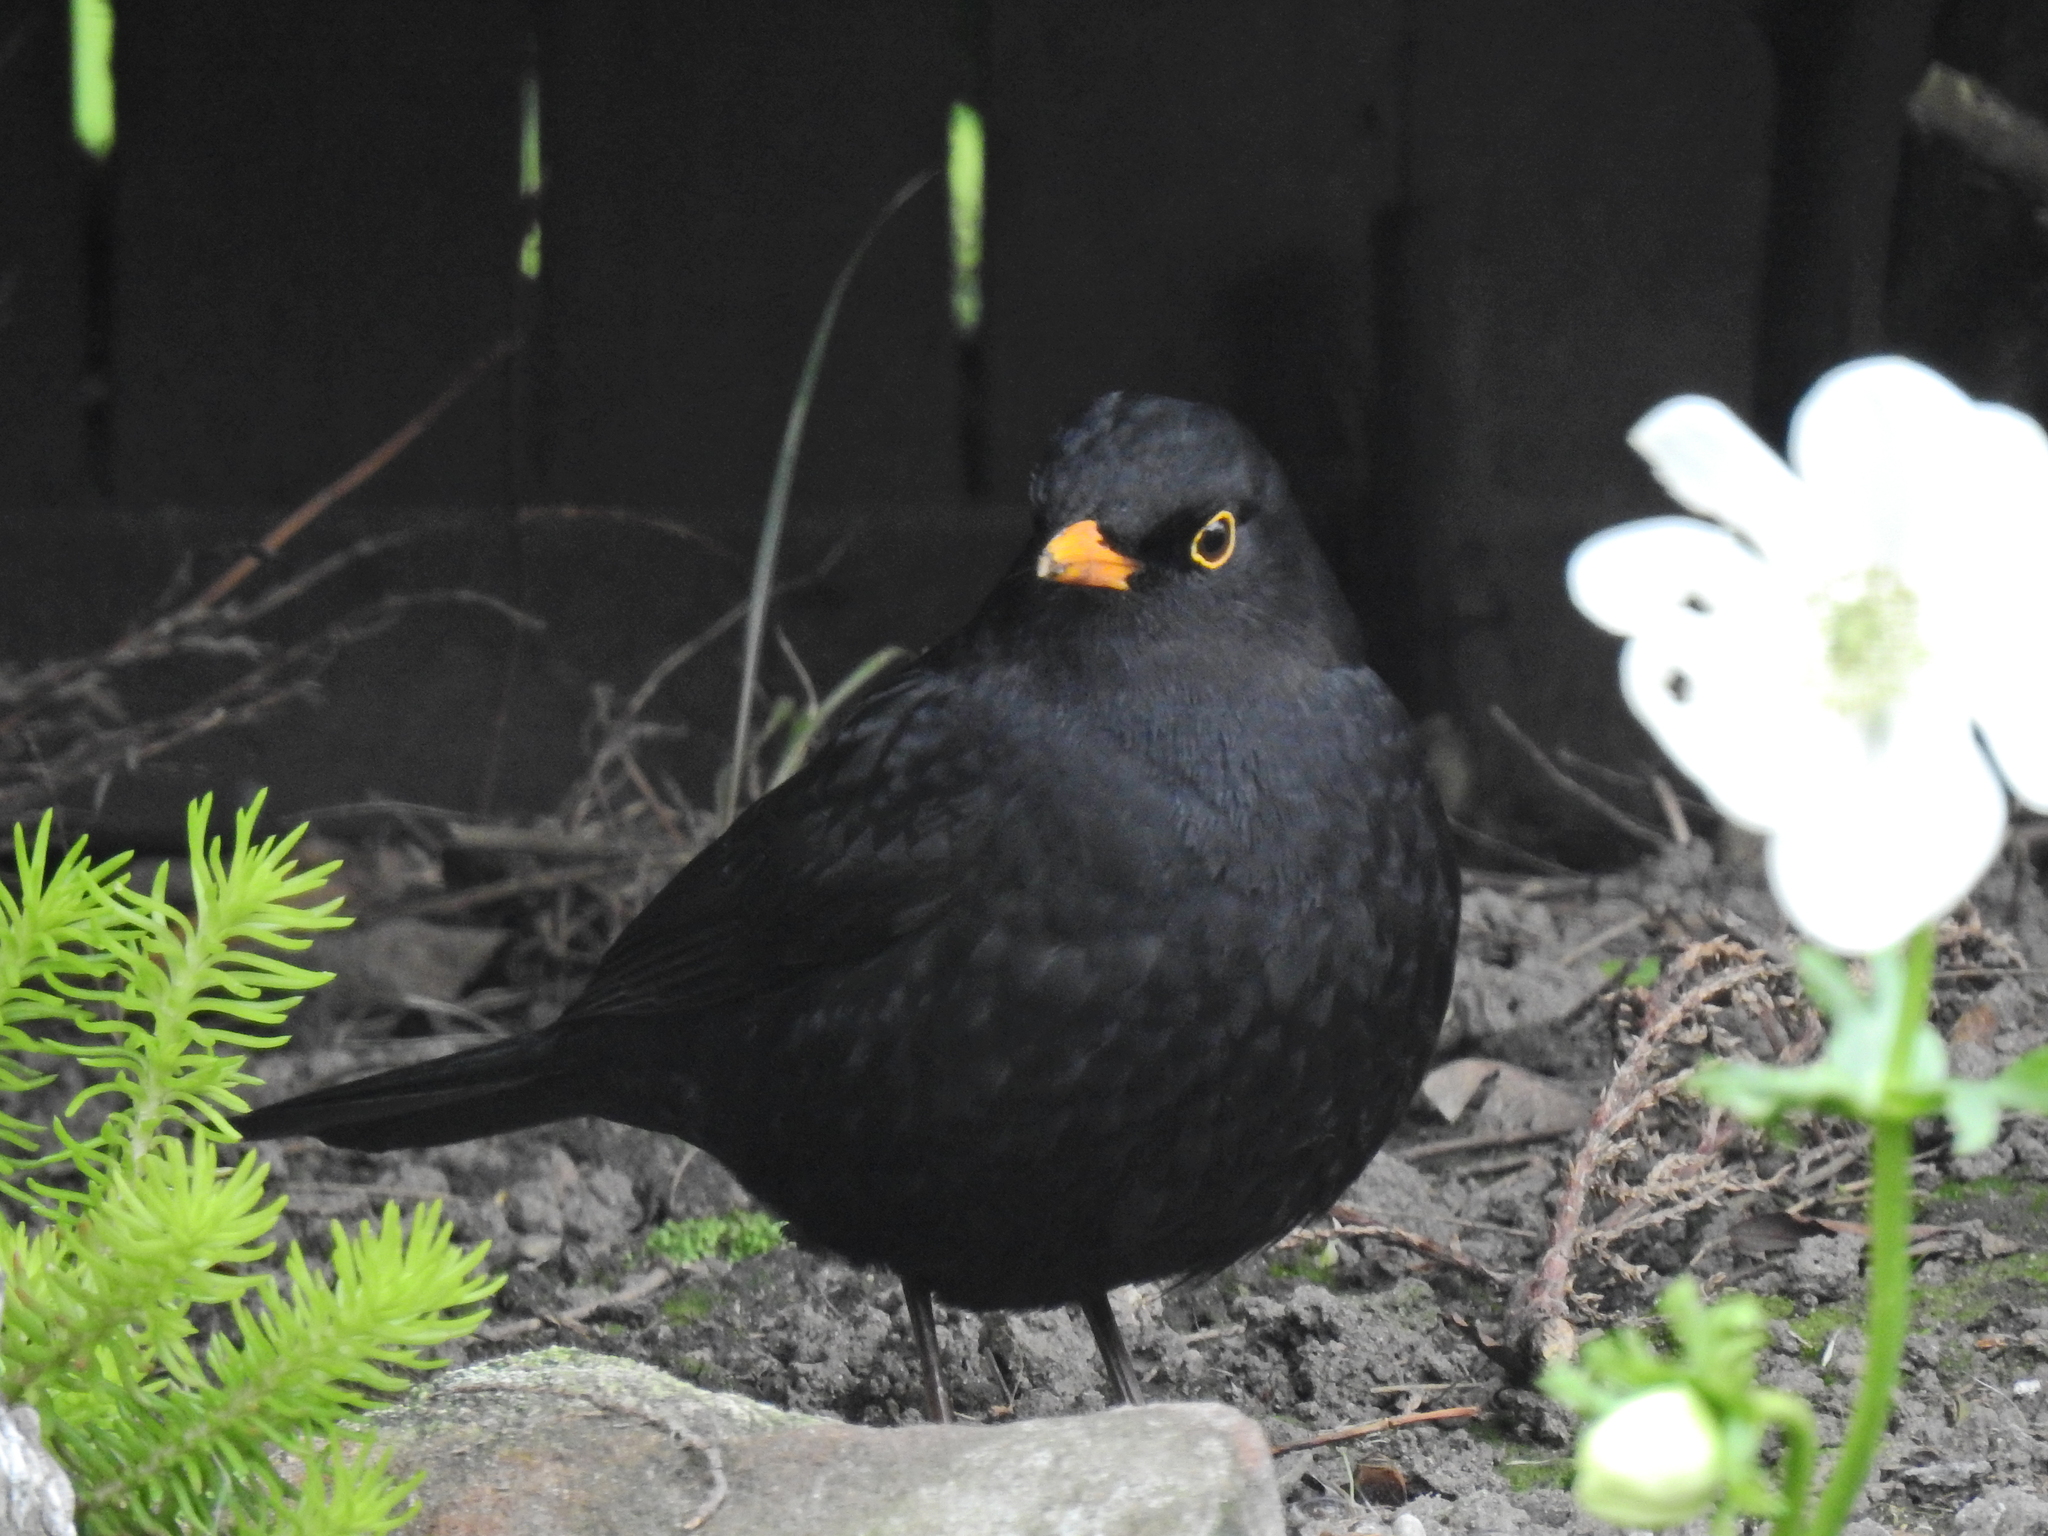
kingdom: Animalia
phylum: Chordata
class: Aves
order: Passeriformes
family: Turdidae
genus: Turdus
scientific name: Turdus merula
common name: Common blackbird
